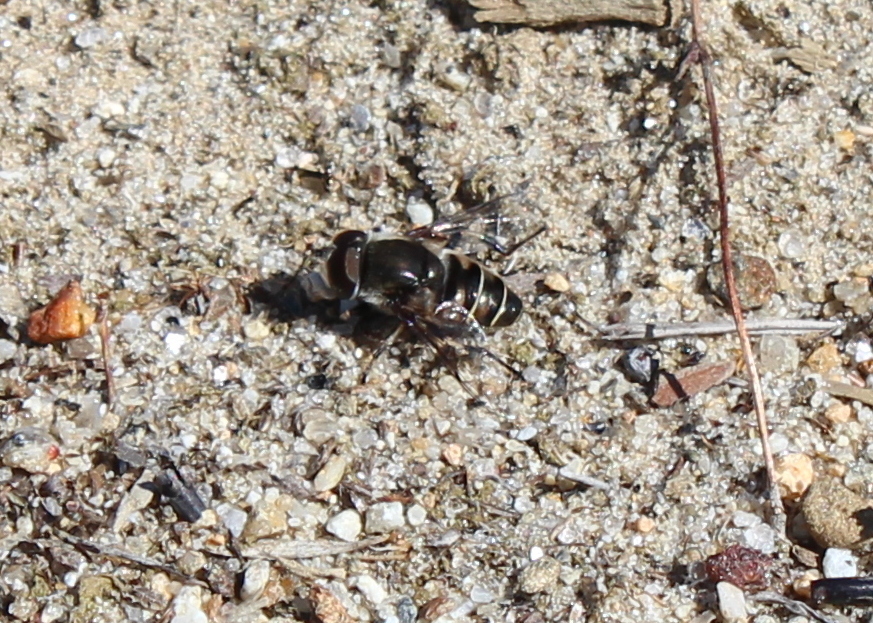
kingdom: Animalia
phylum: Arthropoda
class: Insecta
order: Diptera
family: Syrphidae
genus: Eristalis
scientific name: Eristalis dimidiata
